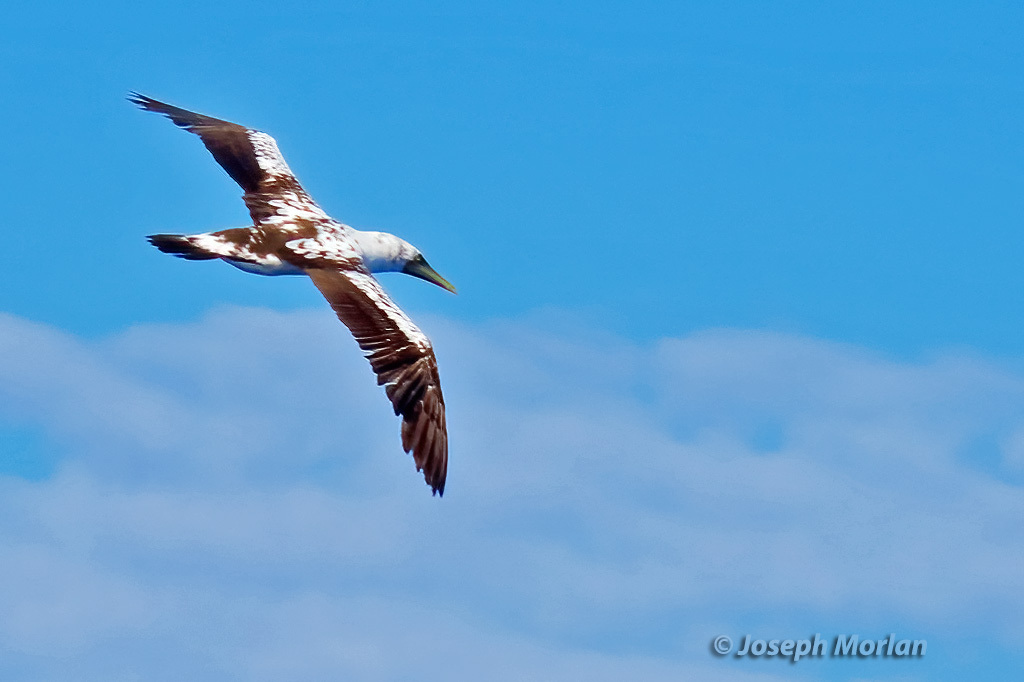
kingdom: Animalia
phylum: Chordata
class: Aves
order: Suliformes
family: Sulidae
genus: Sula
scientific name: Sula dactylatra
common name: Masked booby
